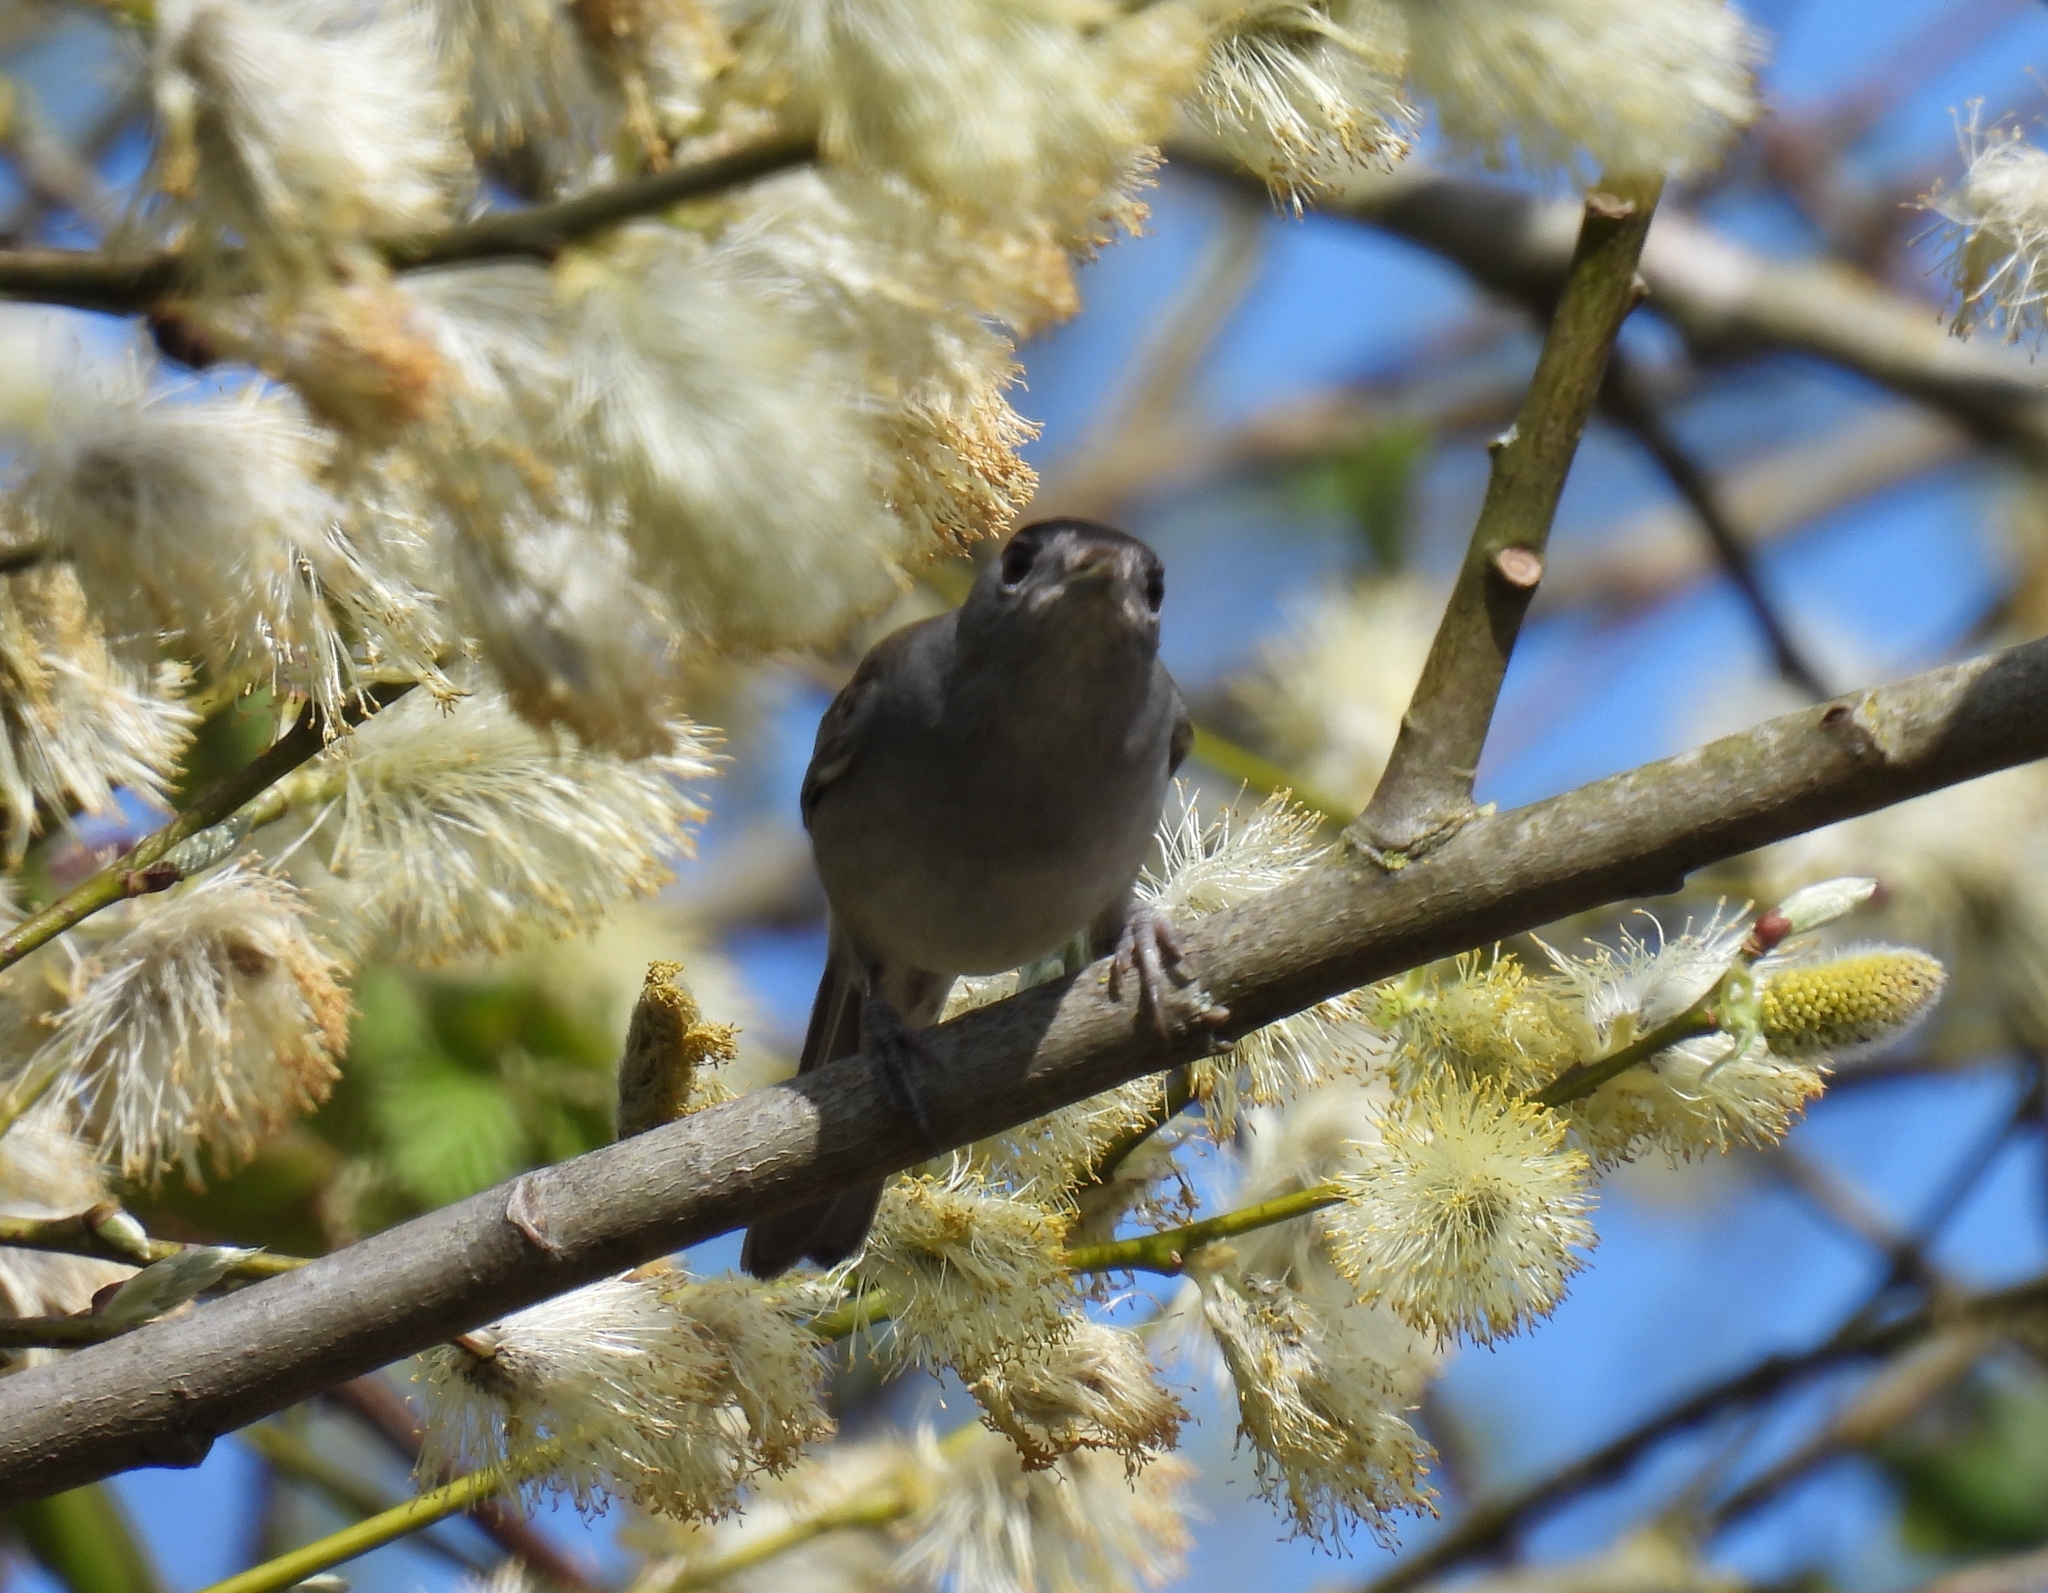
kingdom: Animalia
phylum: Chordata
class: Aves
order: Passeriformes
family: Sylviidae
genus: Sylvia
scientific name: Sylvia atricapilla
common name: Eurasian blackcap
